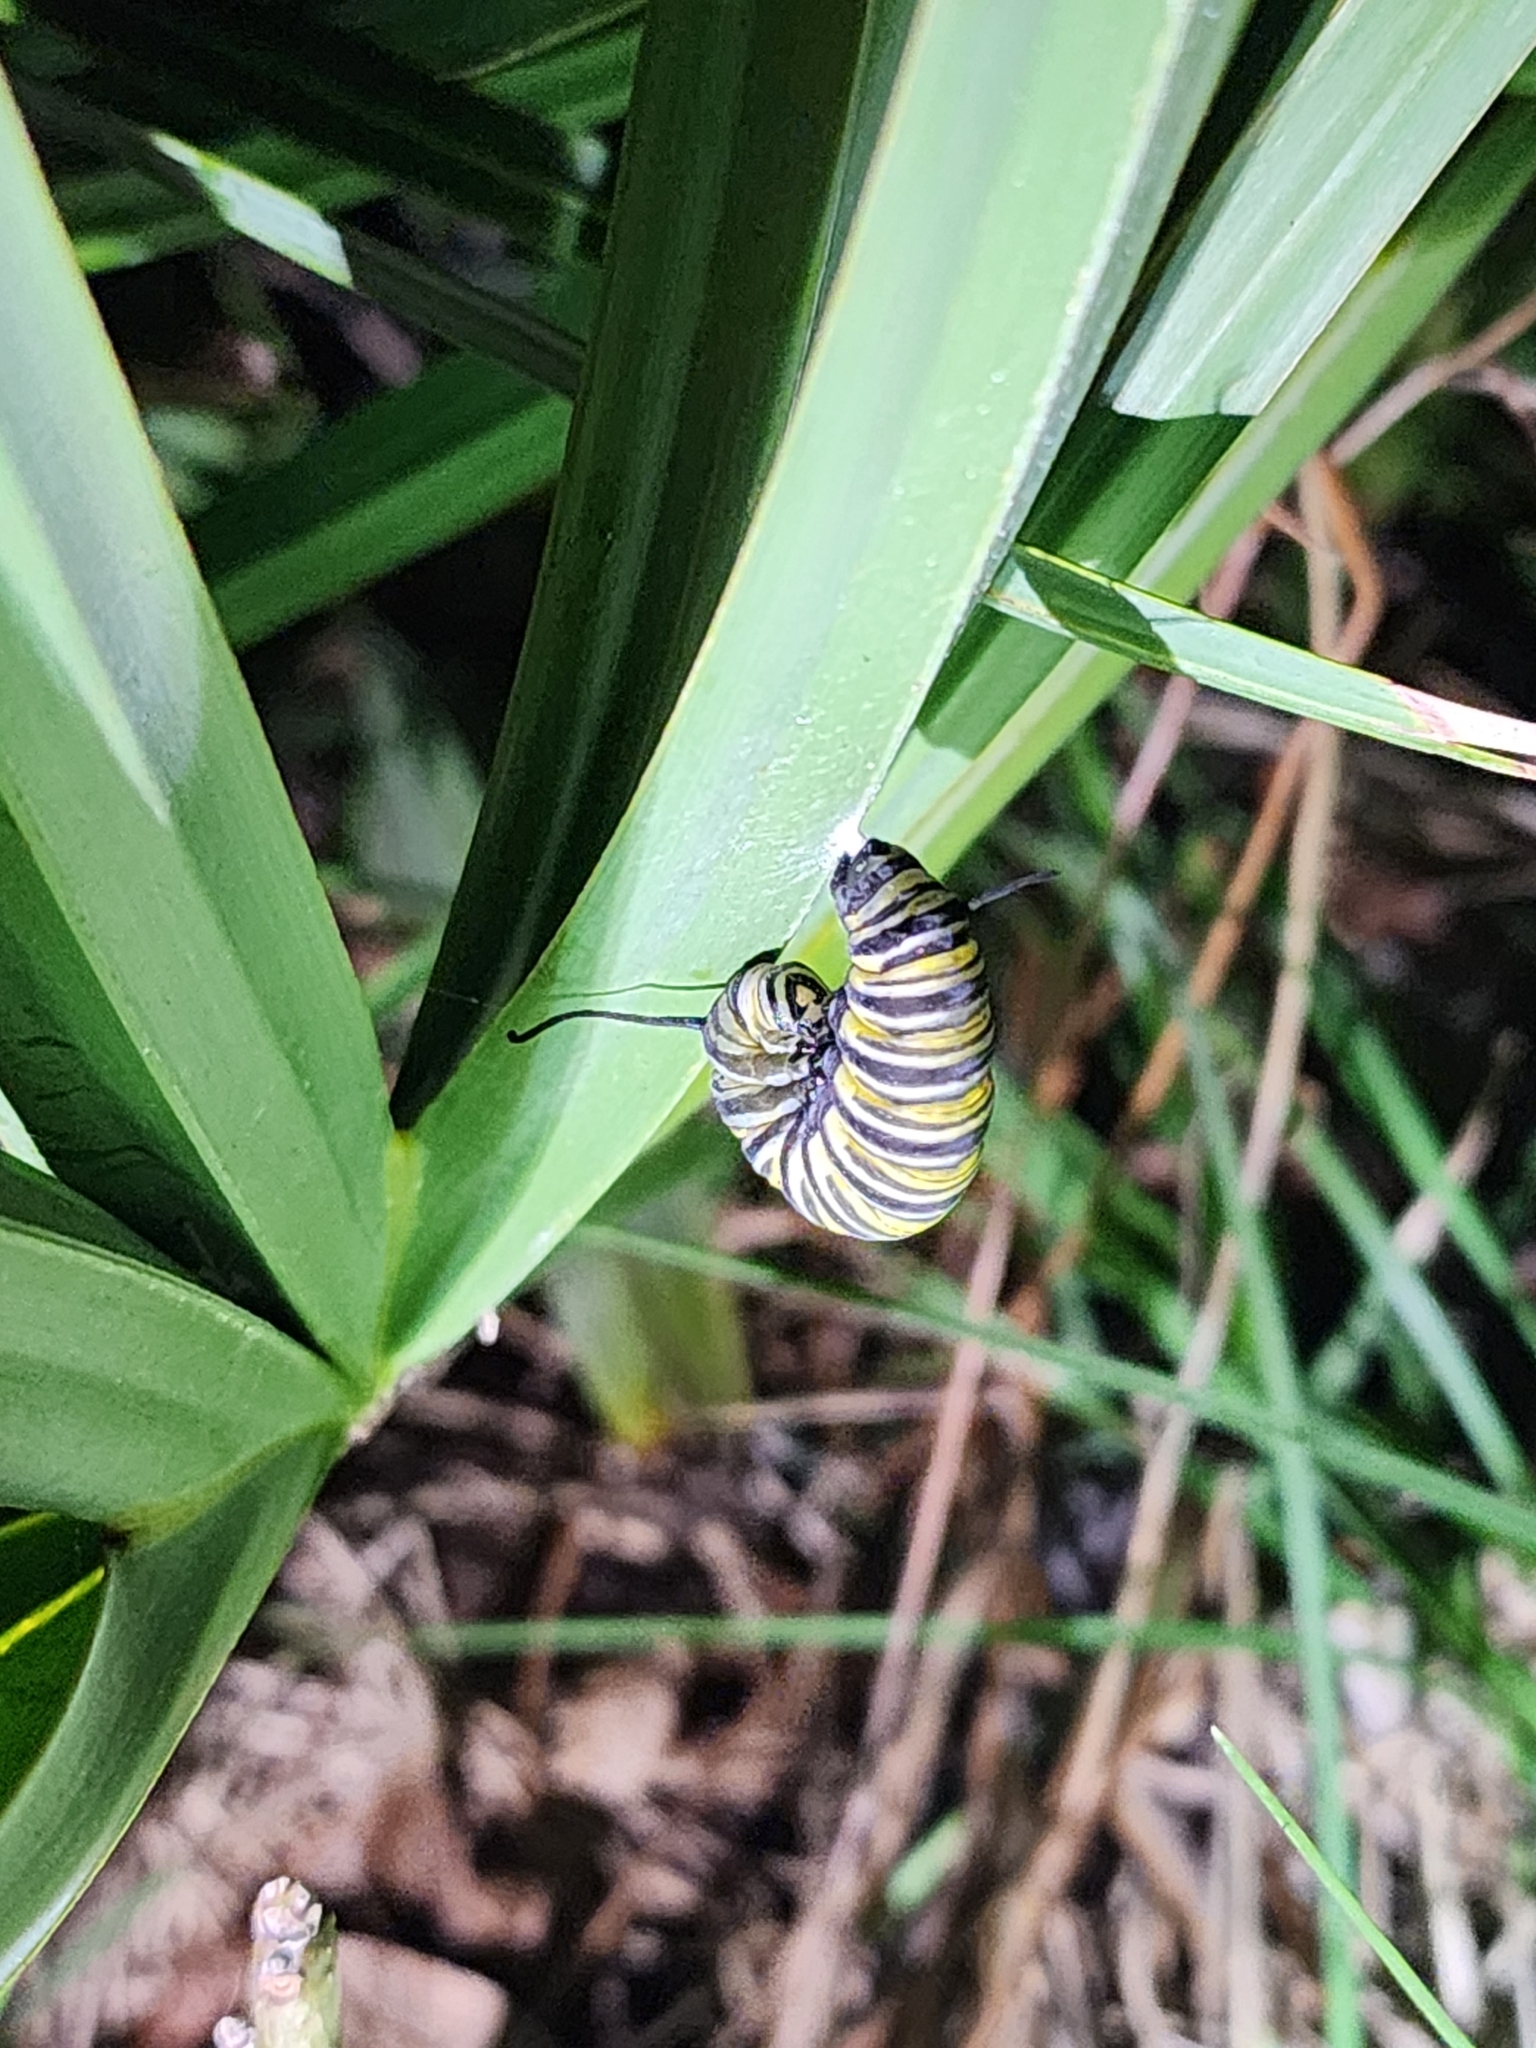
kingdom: Animalia
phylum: Arthropoda
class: Insecta
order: Lepidoptera
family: Nymphalidae
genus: Danaus
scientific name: Danaus plexippus
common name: Monarch
